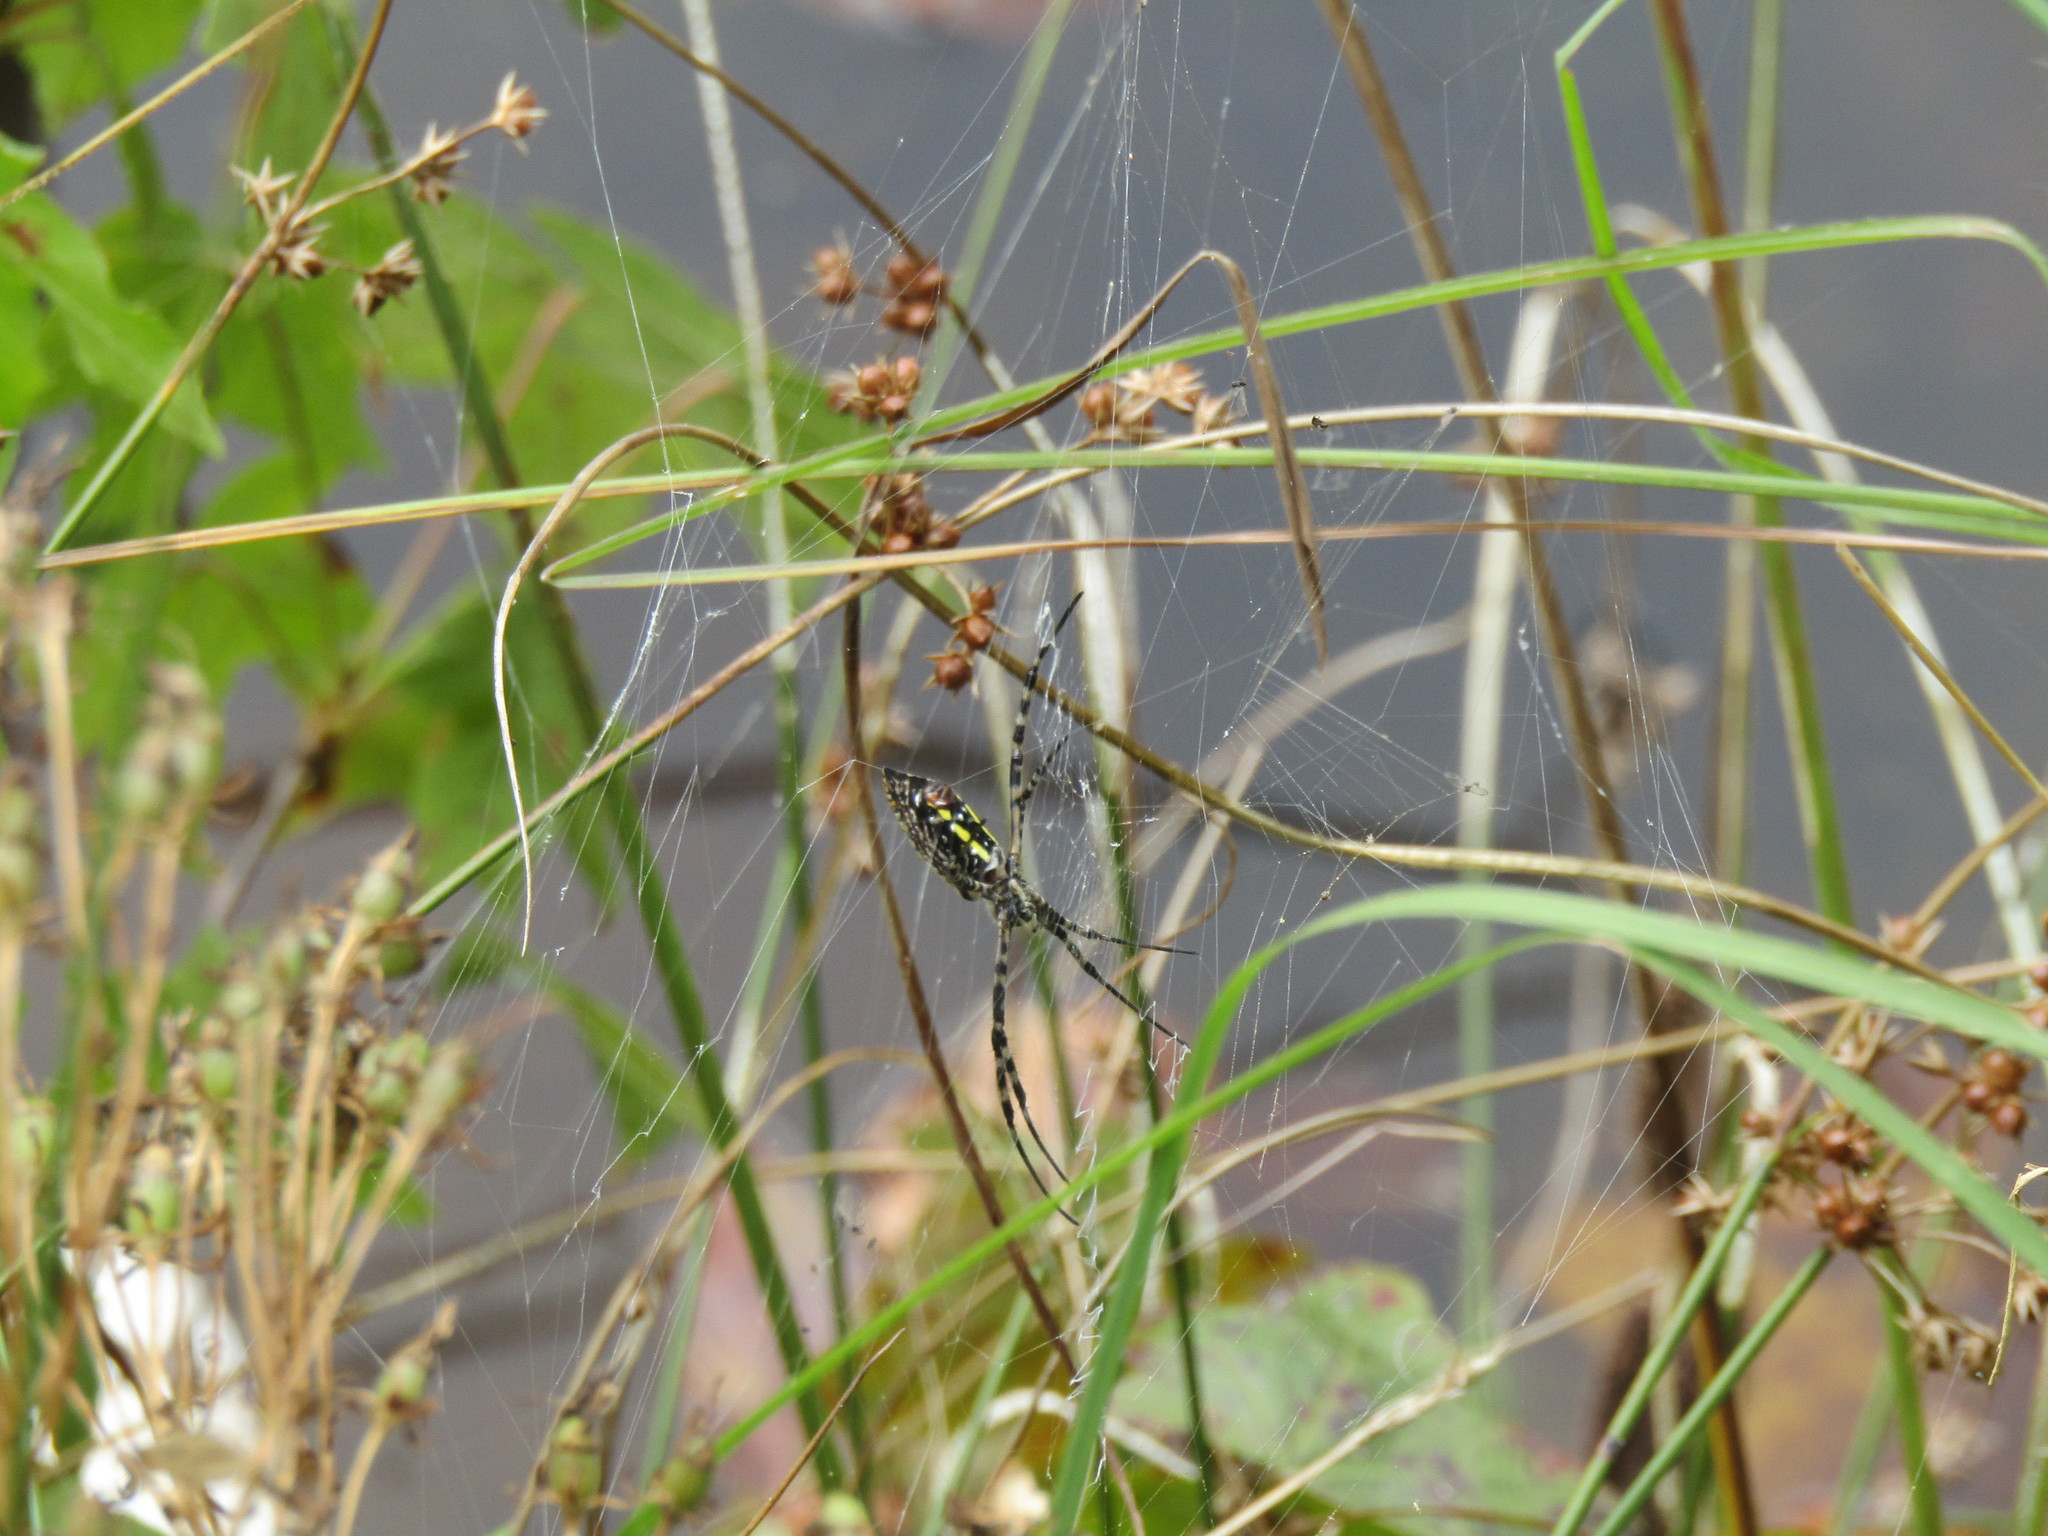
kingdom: Animalia
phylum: Arthropoda
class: Arachnida
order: Araneae
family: Araneidae
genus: Argiope
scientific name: Argiope trifasciata
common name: Banded garden spider
